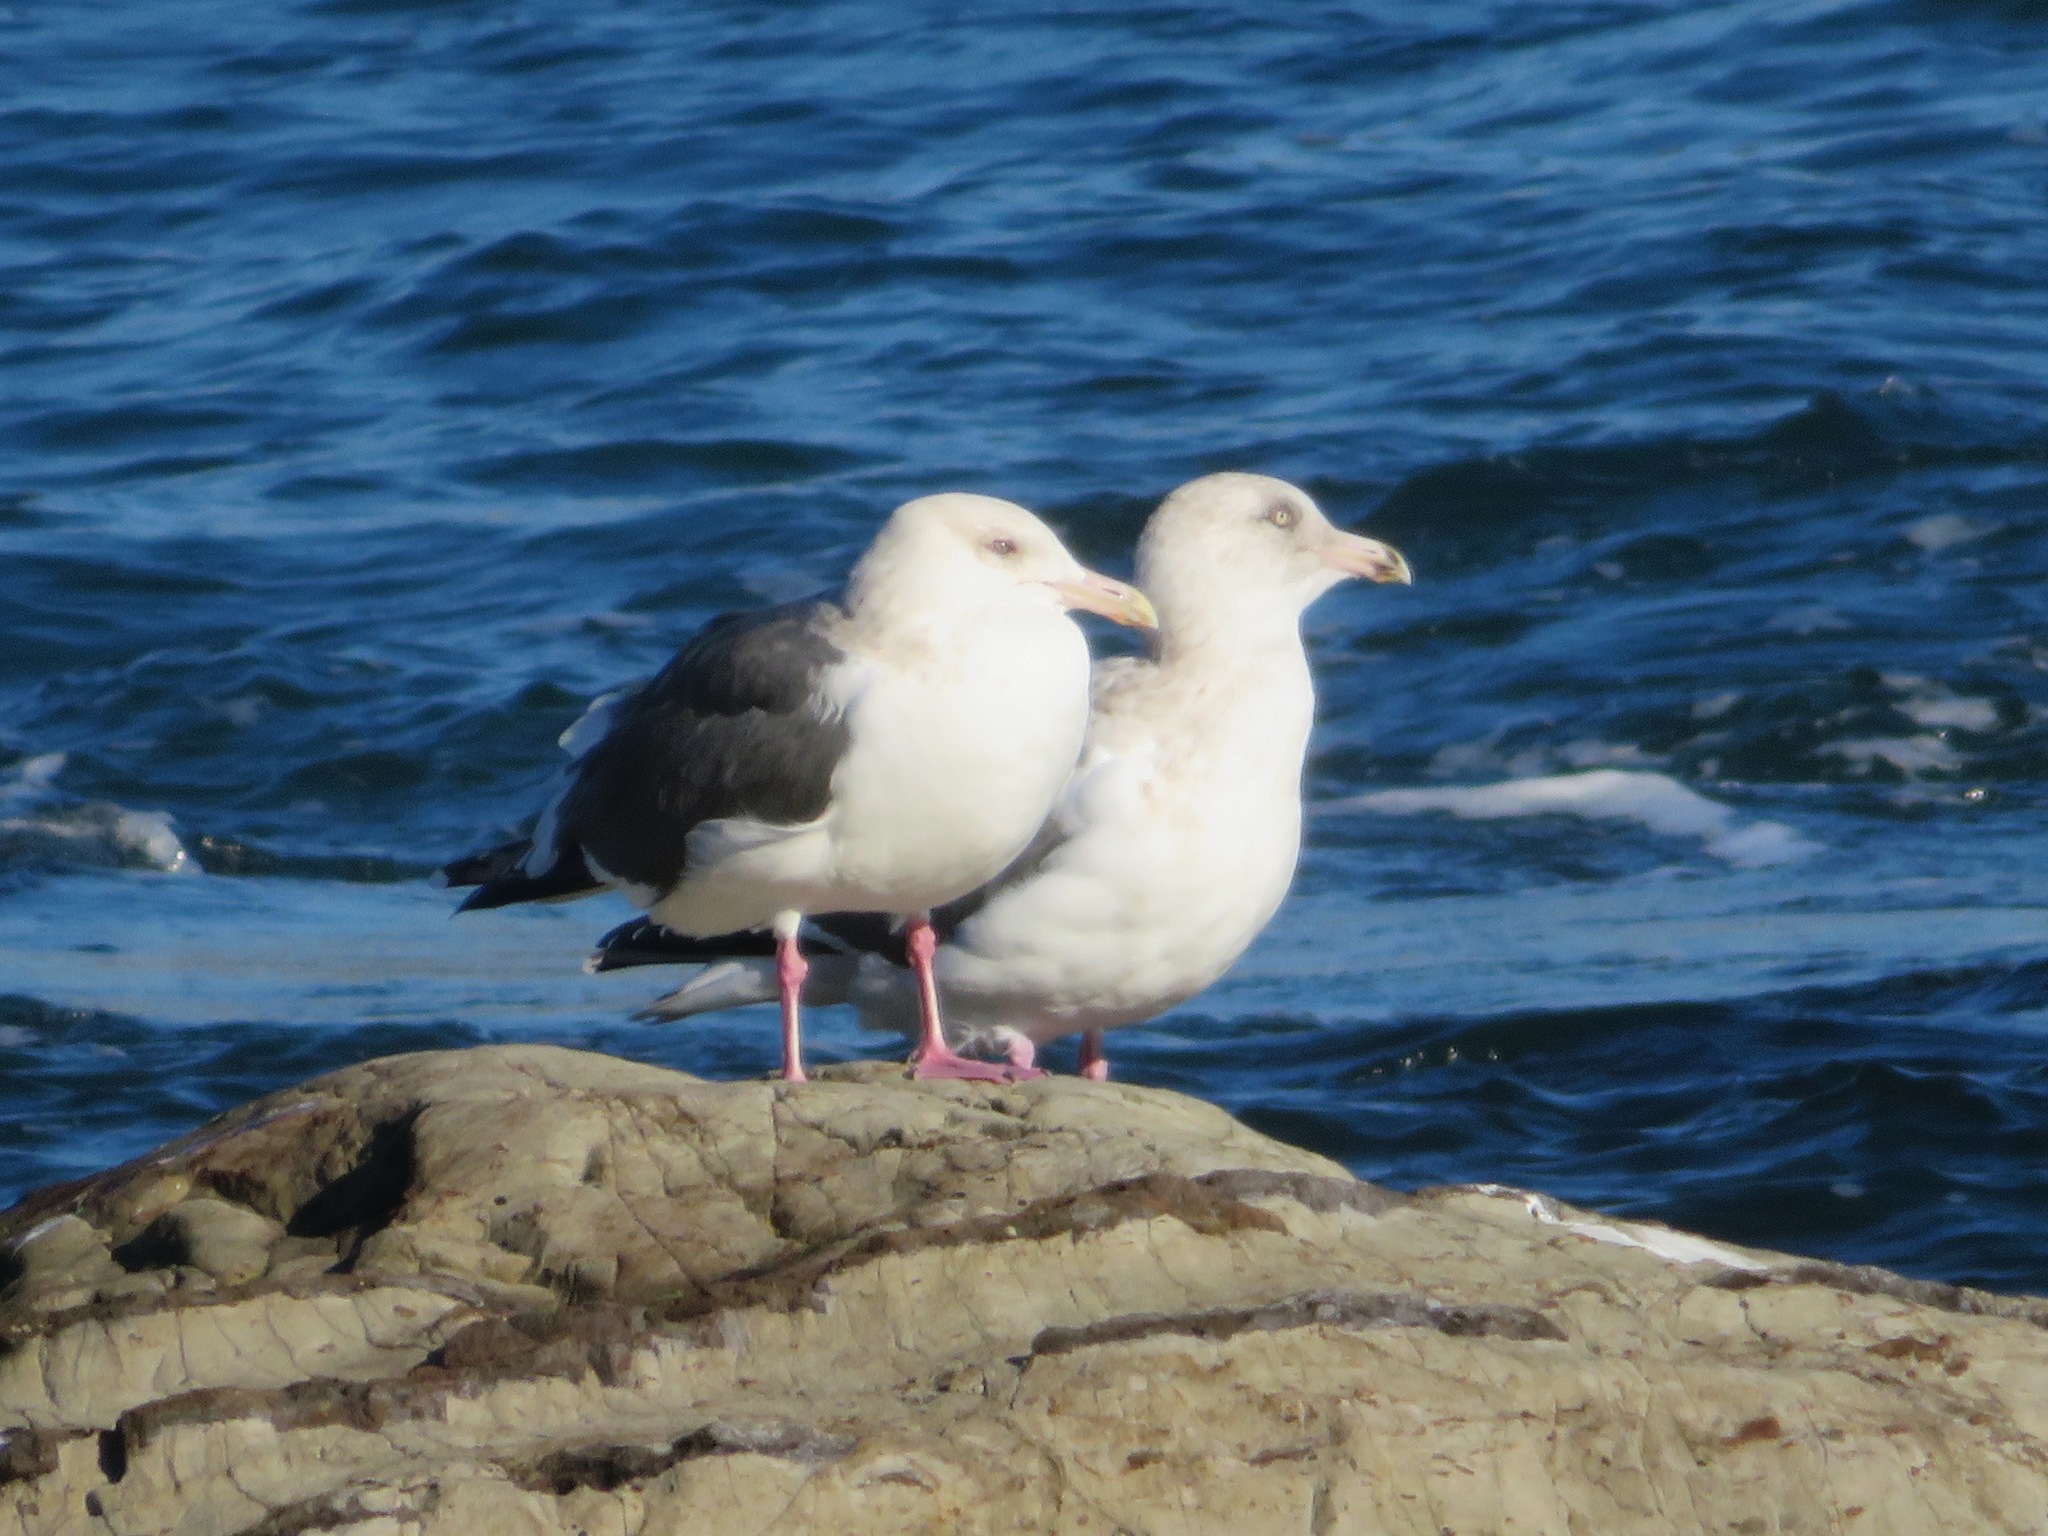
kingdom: Animalia
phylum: Chordata
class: Aves
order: Charadriiformes
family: Laridae
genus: Larus
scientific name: Larus schistisagus
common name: Slaty-backed gull
